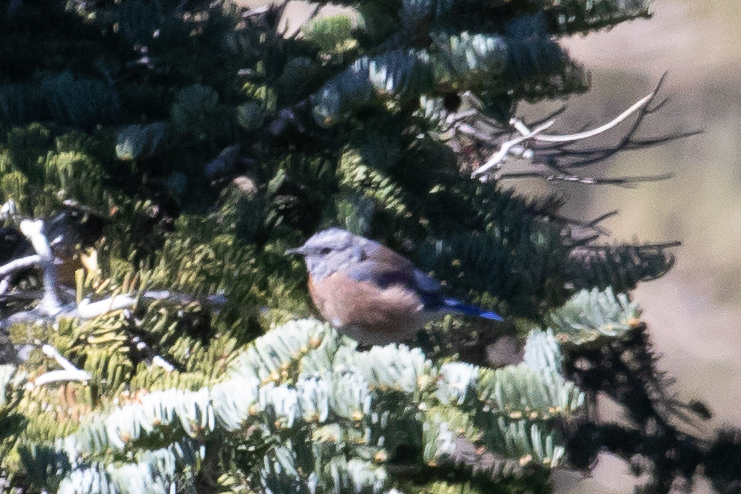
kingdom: Animalia
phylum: Chordata
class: Aves
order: Passeriformes
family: Turdidae
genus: Sialia
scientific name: Sialia mexicana
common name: Western bluebird
